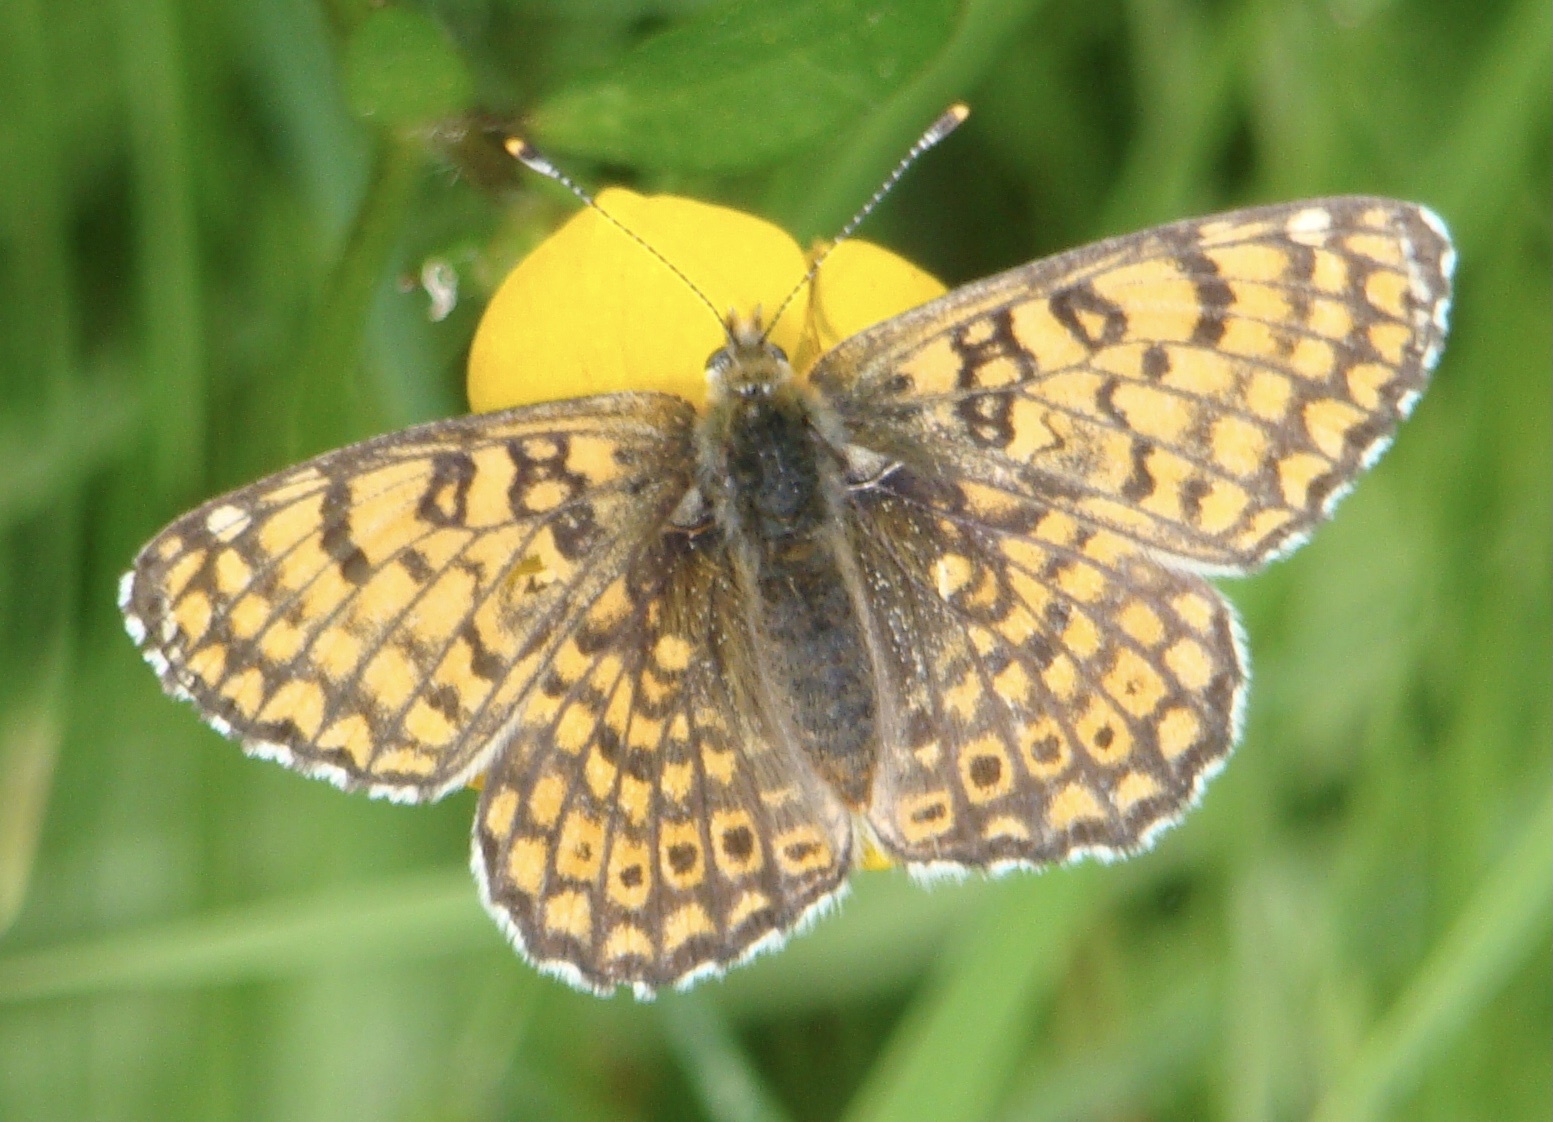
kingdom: Animalia
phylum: Arthropoda
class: Insecta
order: Lepidoptera
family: Nymphalidae
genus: Melitaea
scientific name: Melitaea cinxia
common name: Glanville fritillary
